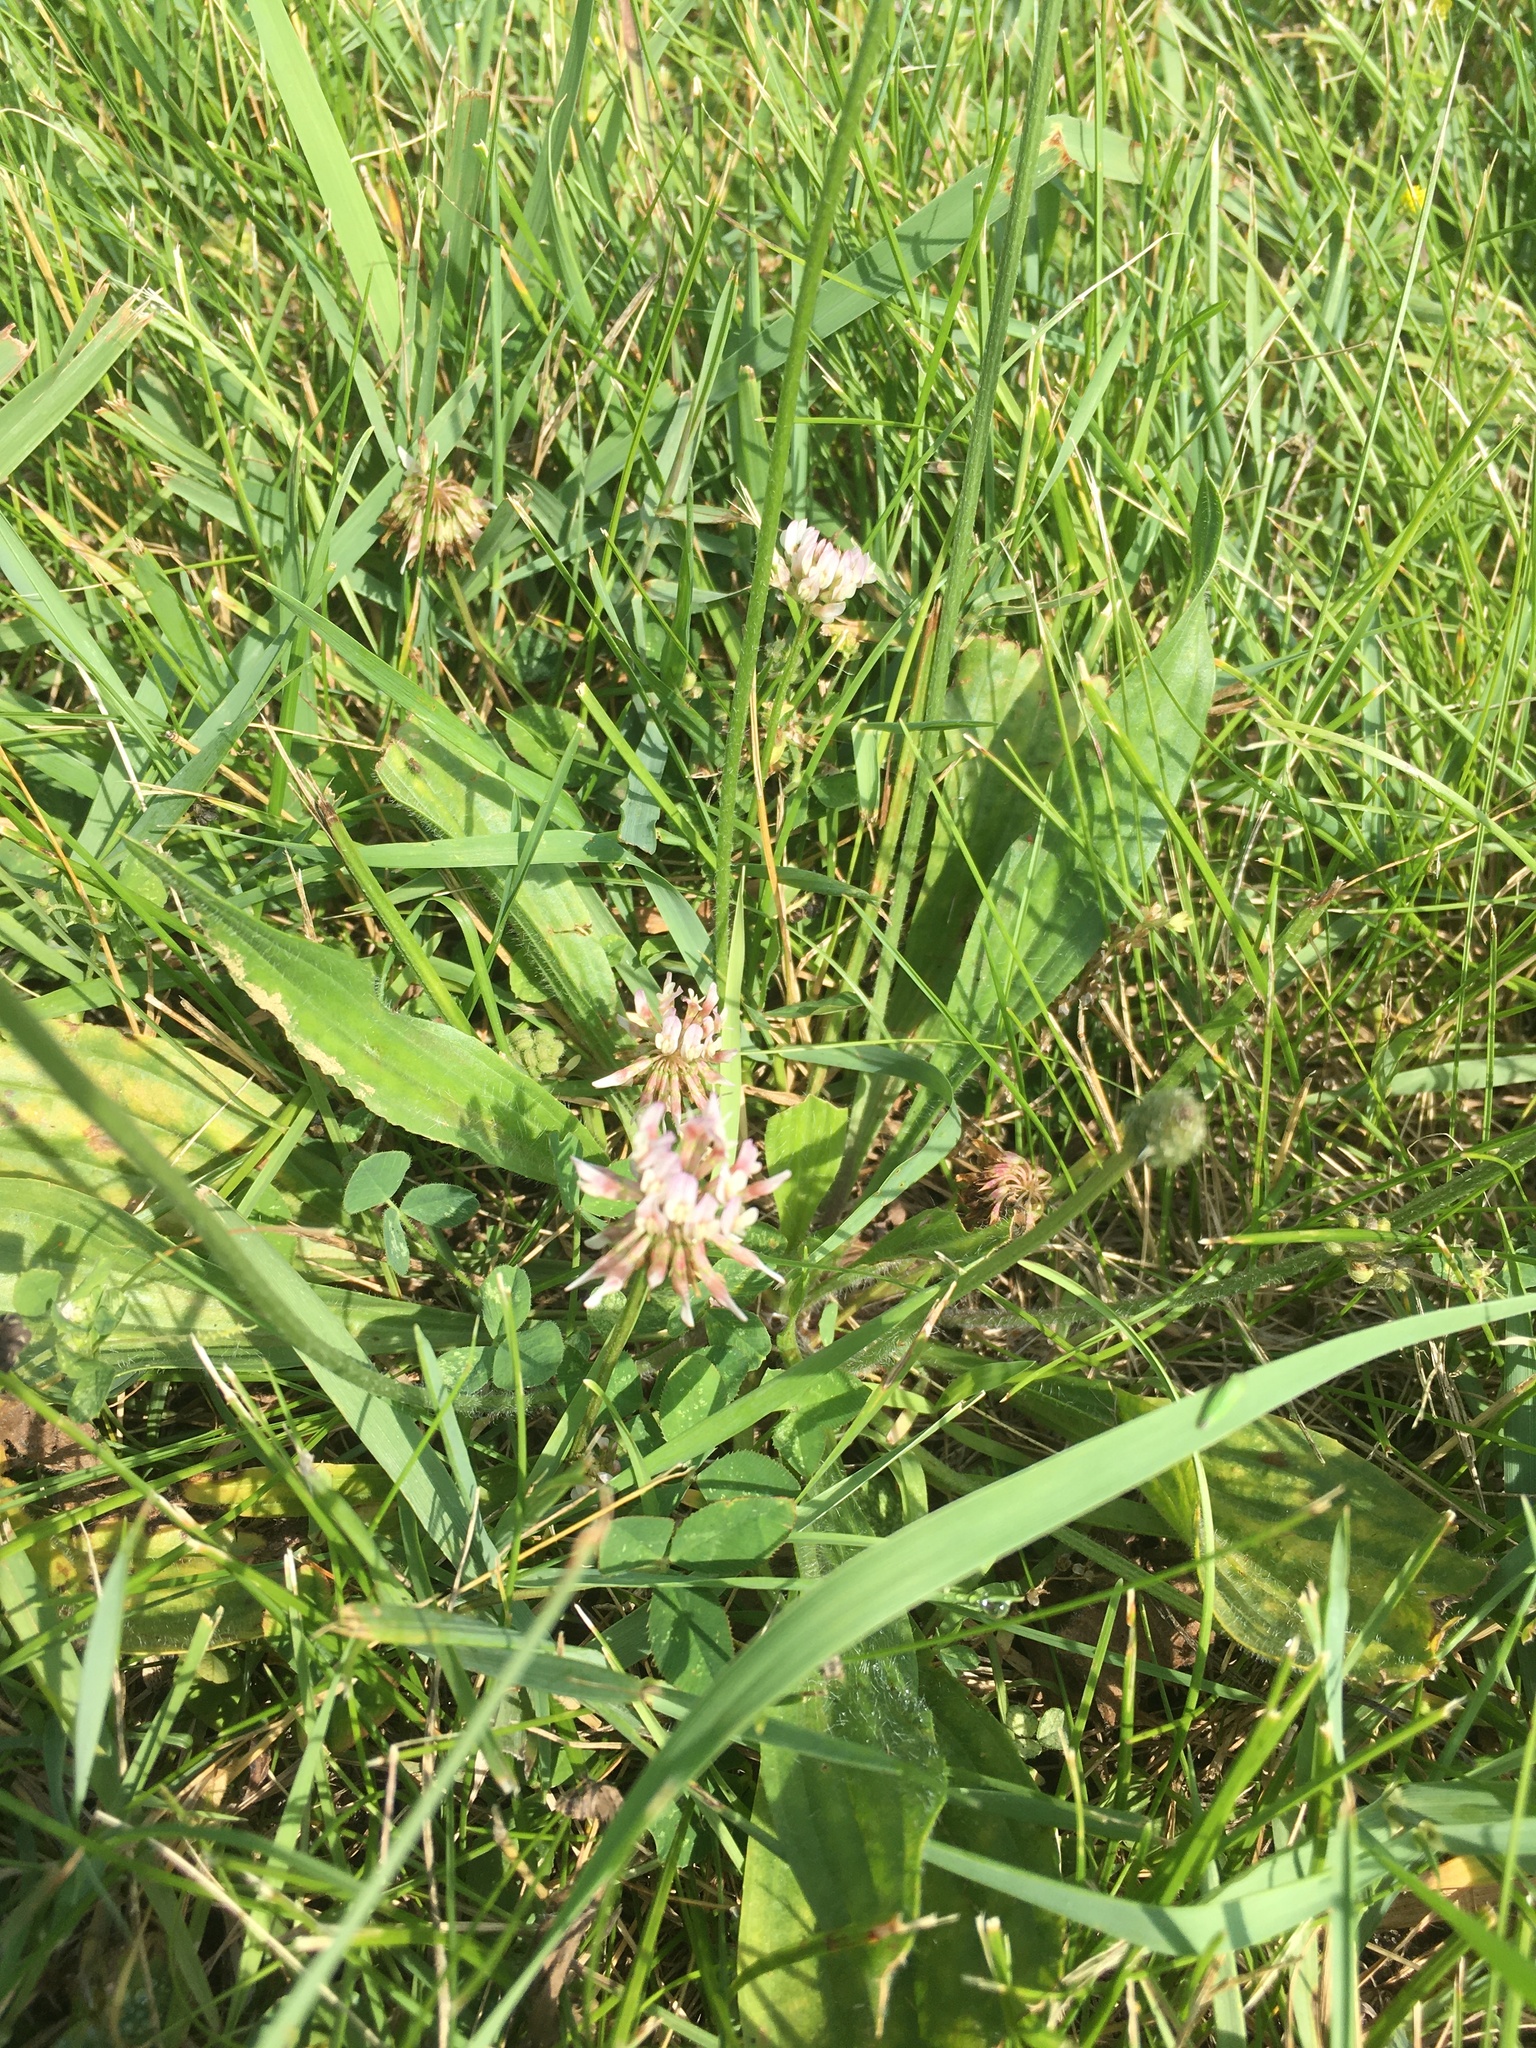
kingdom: Plantae
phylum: Tracheophyta
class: Magnoliopsida
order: Fabales
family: Fabaceae
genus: Trifolium
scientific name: Trifolium repens
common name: White clover
